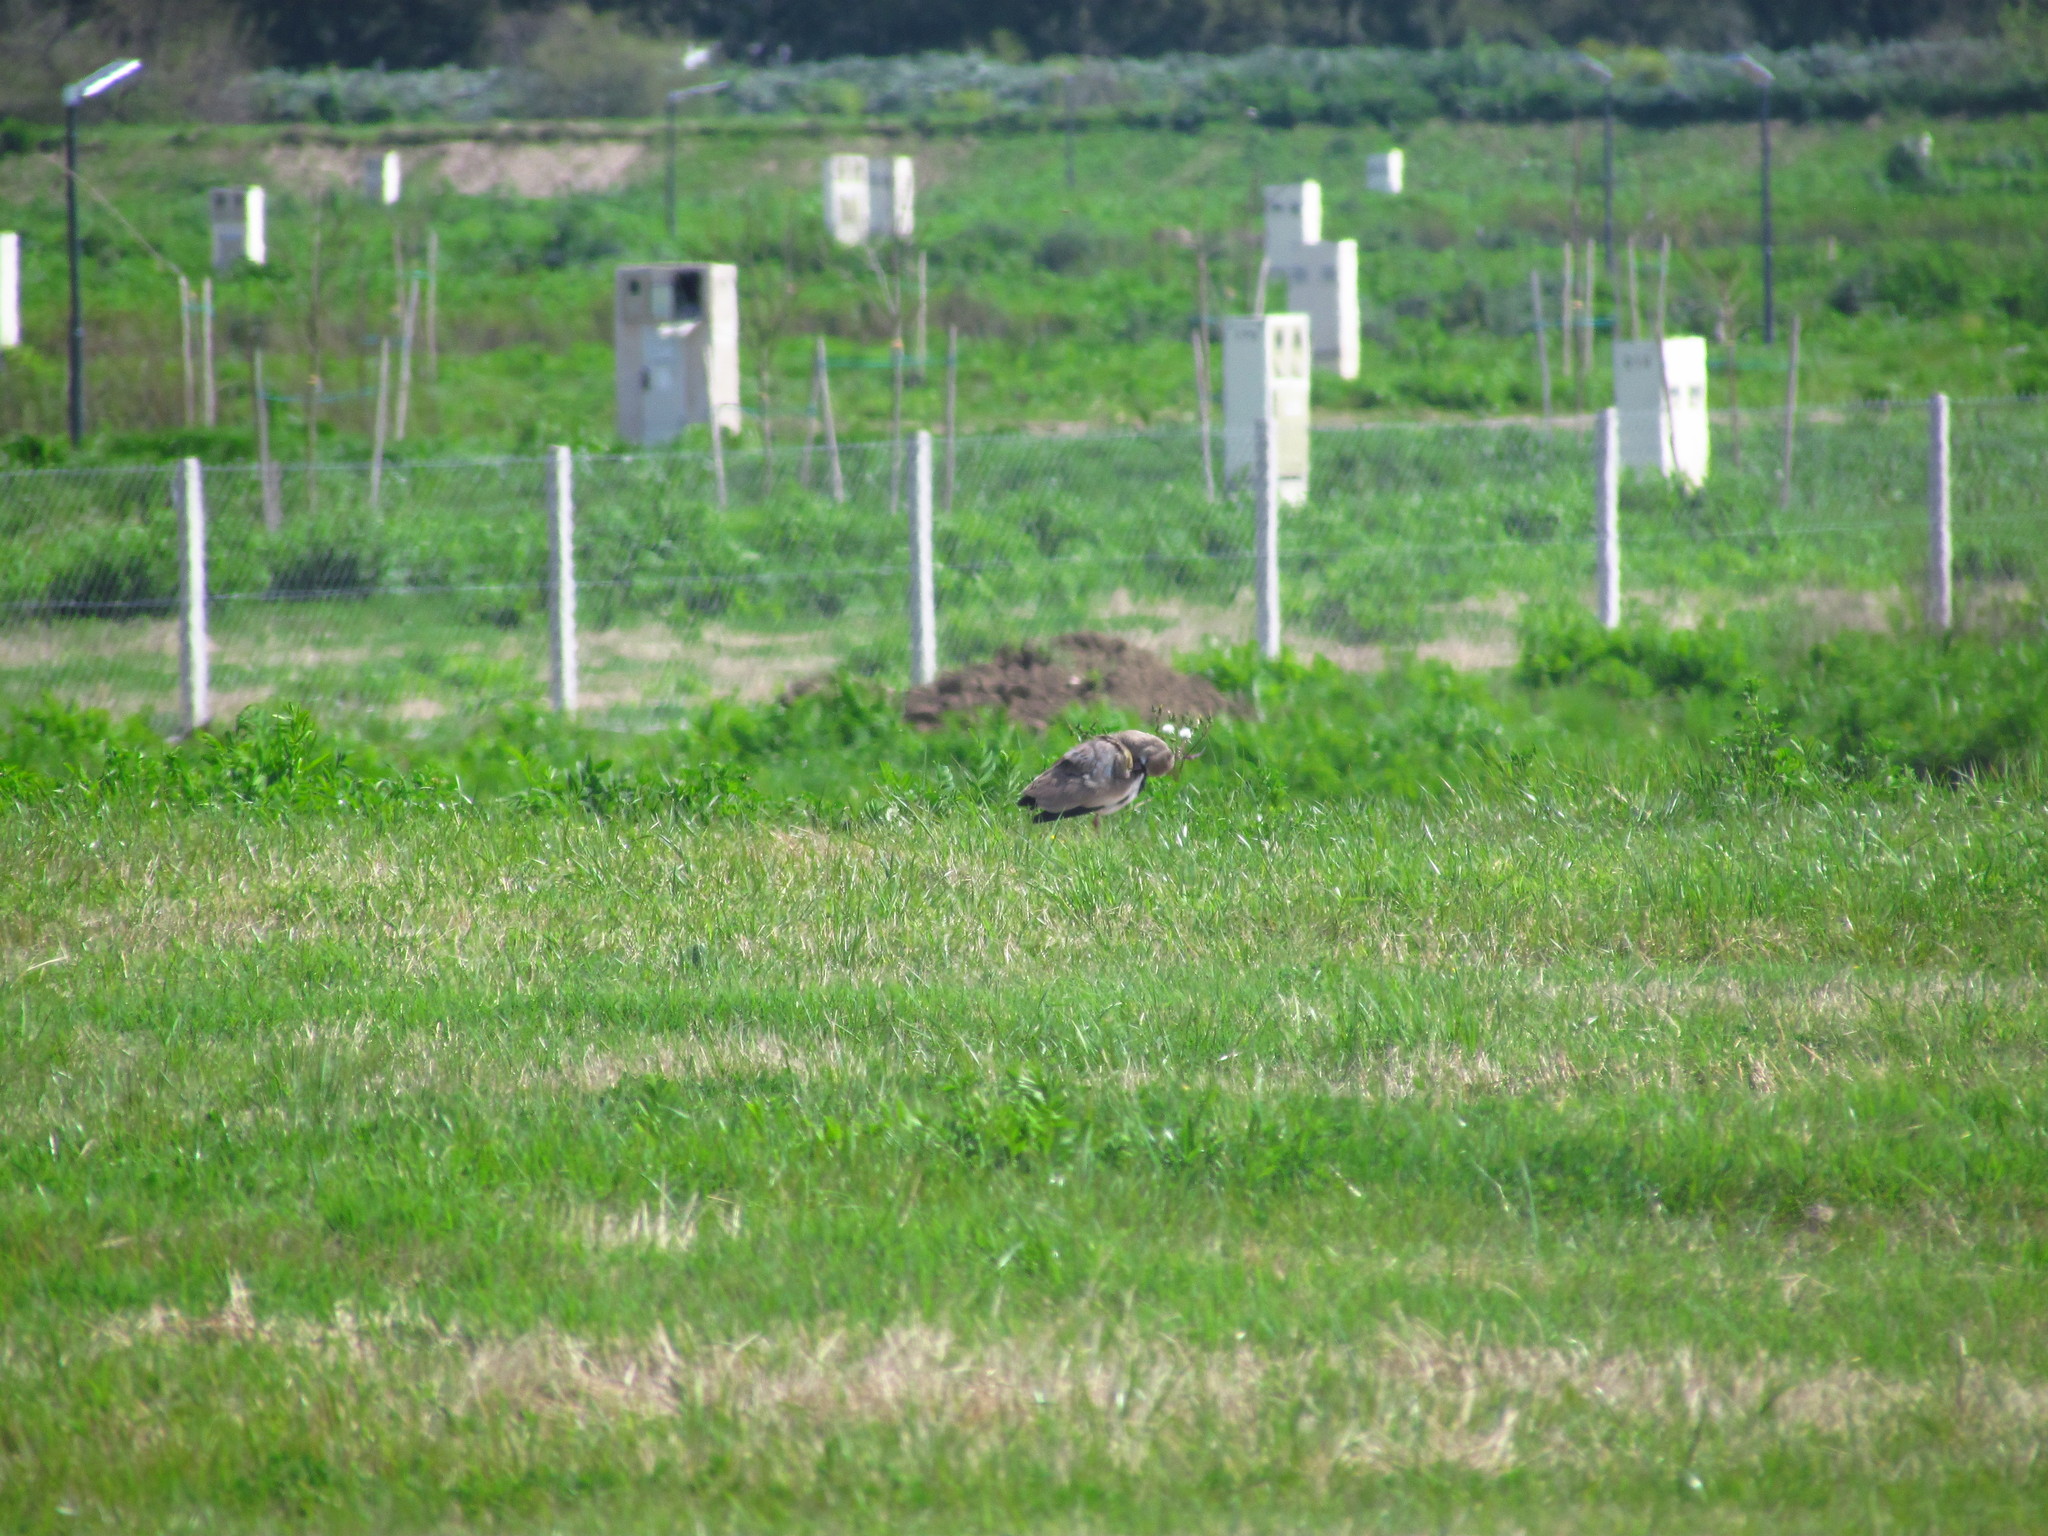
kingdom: Animalia
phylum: Chordata
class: Aves
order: Charadriiformes
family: Charadriidae
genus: Vanellus
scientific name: Vanellus chilensis
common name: Southern lapwing
